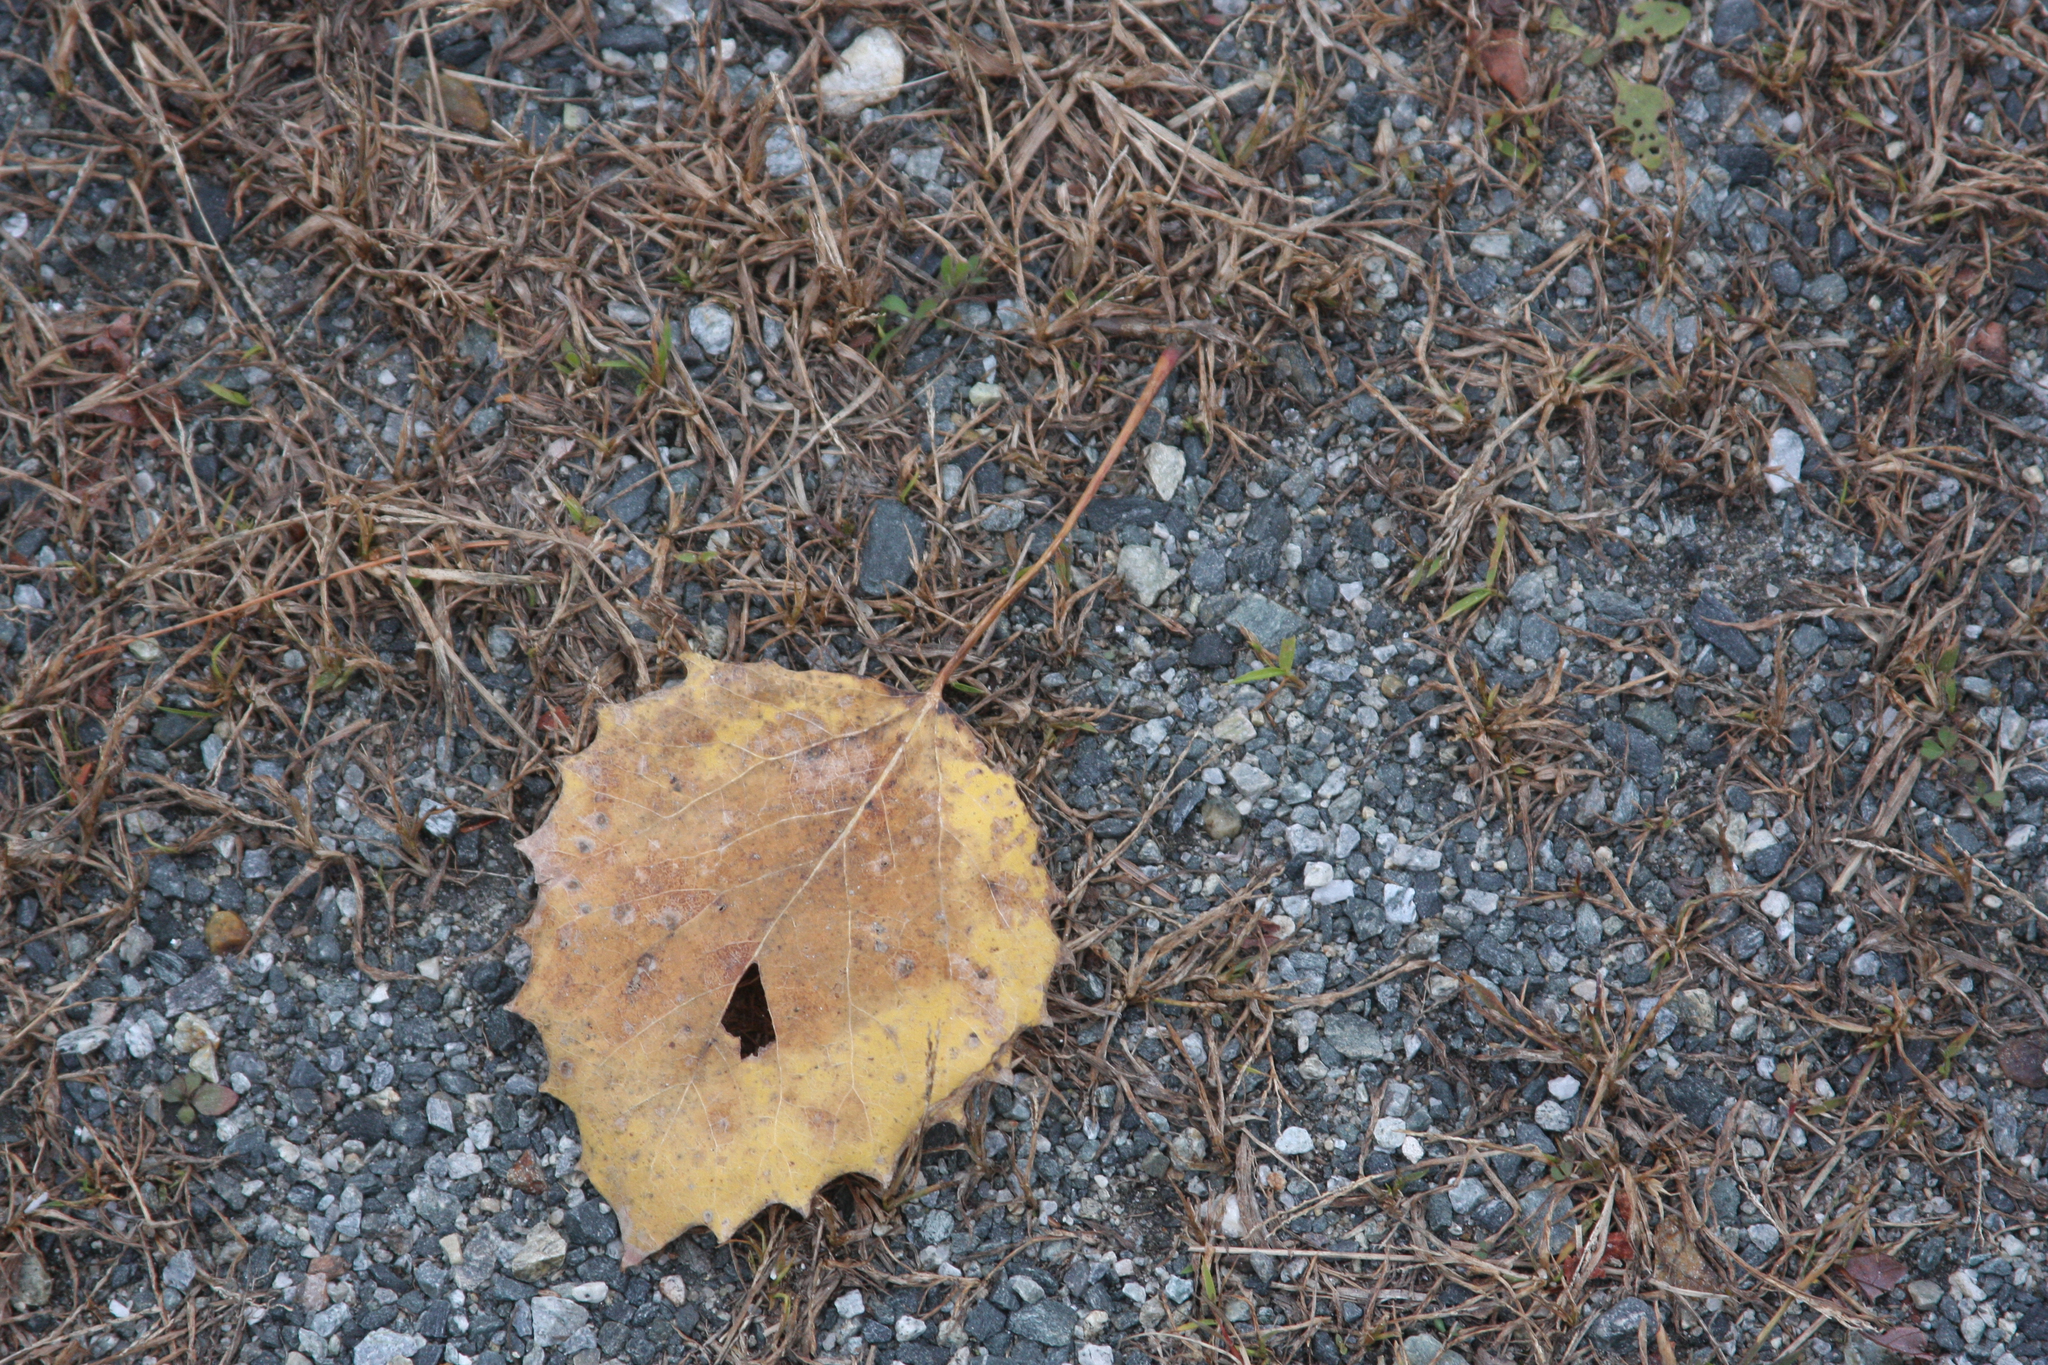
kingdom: Plantae
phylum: Tracheophyta
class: Magnoliopsida
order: Malpighiales
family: Salicaceae
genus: Populus
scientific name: Populus grandidentata
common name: Bigtooth aspen
